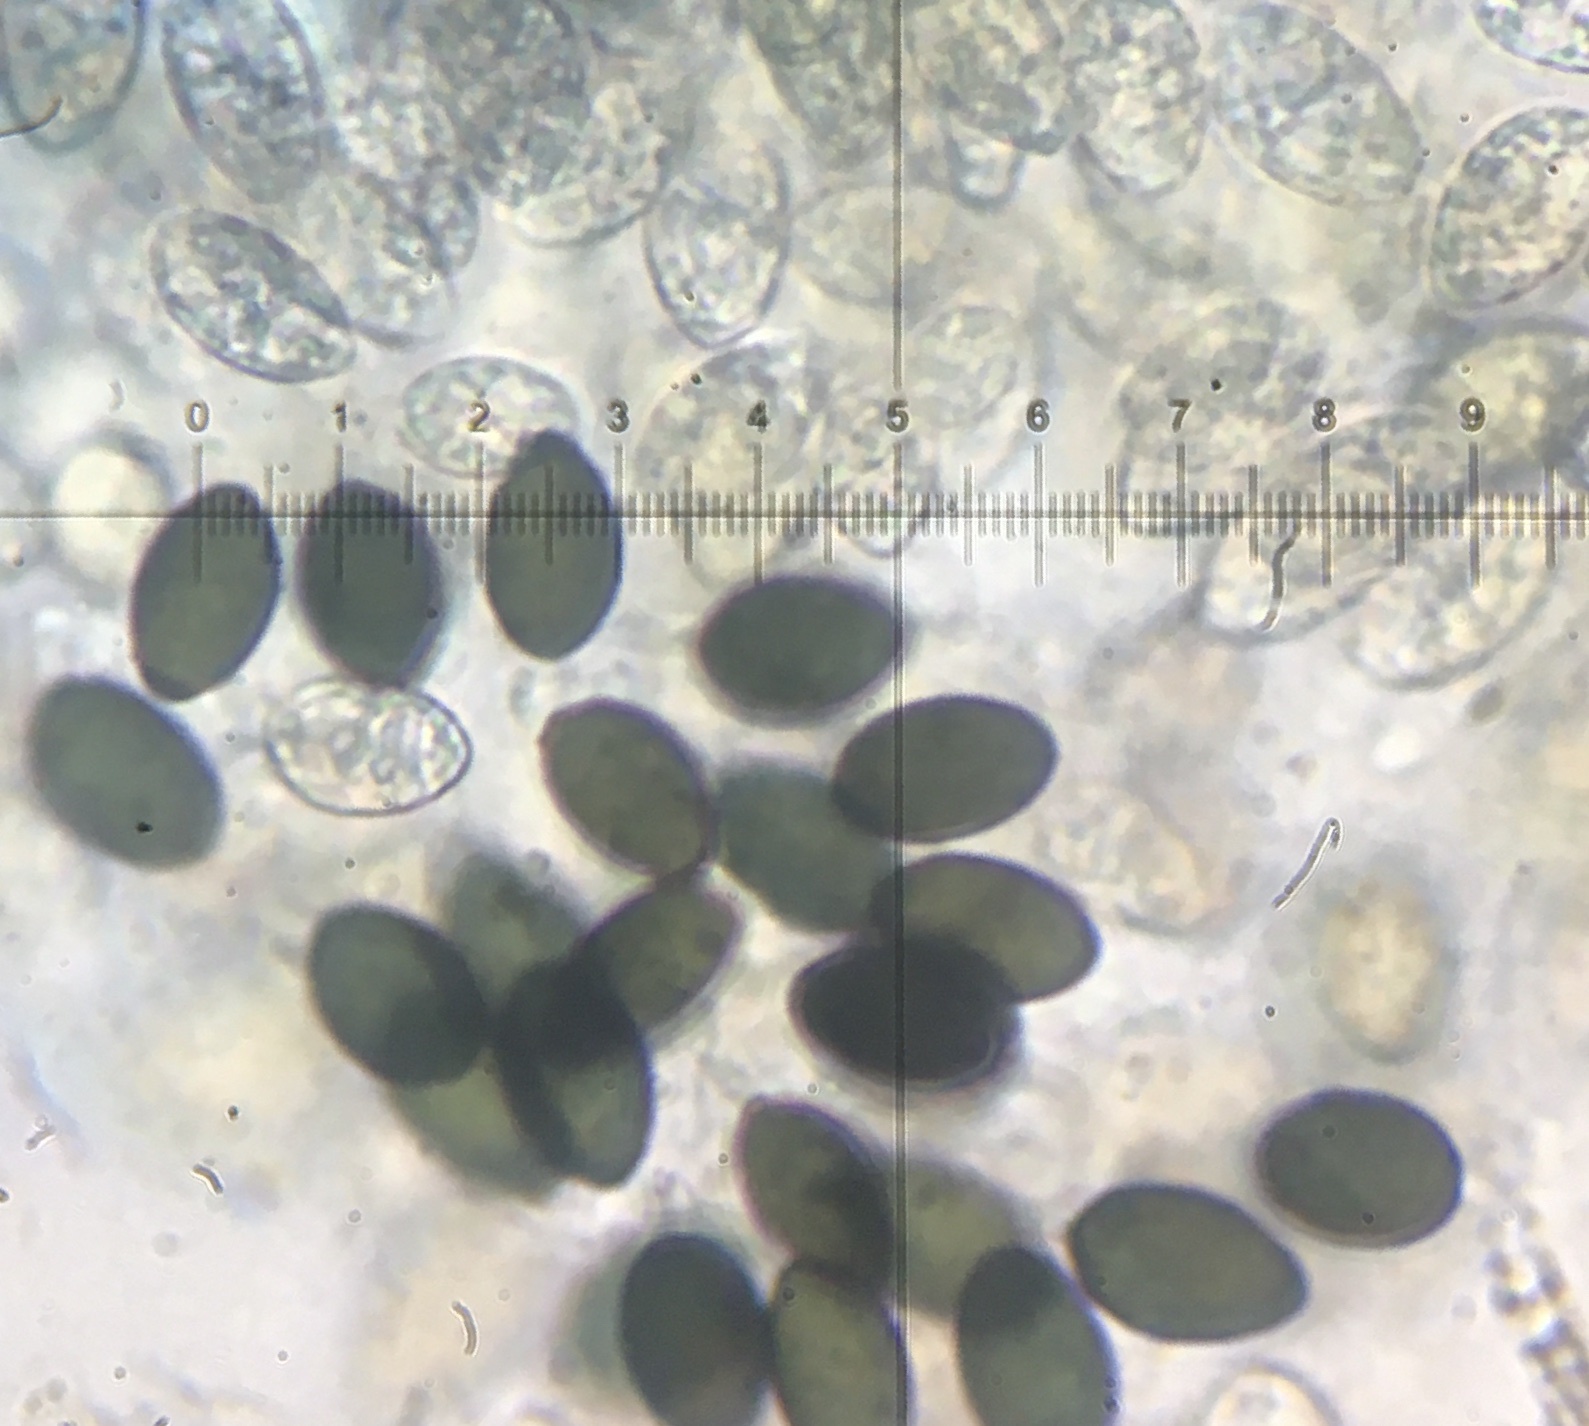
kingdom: Fungi
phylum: Ascomycota
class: Sordariomycetes
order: Sordariales
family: Schizotheciaceae
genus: Pseudoechria
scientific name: Pseudoechria curvicolla
